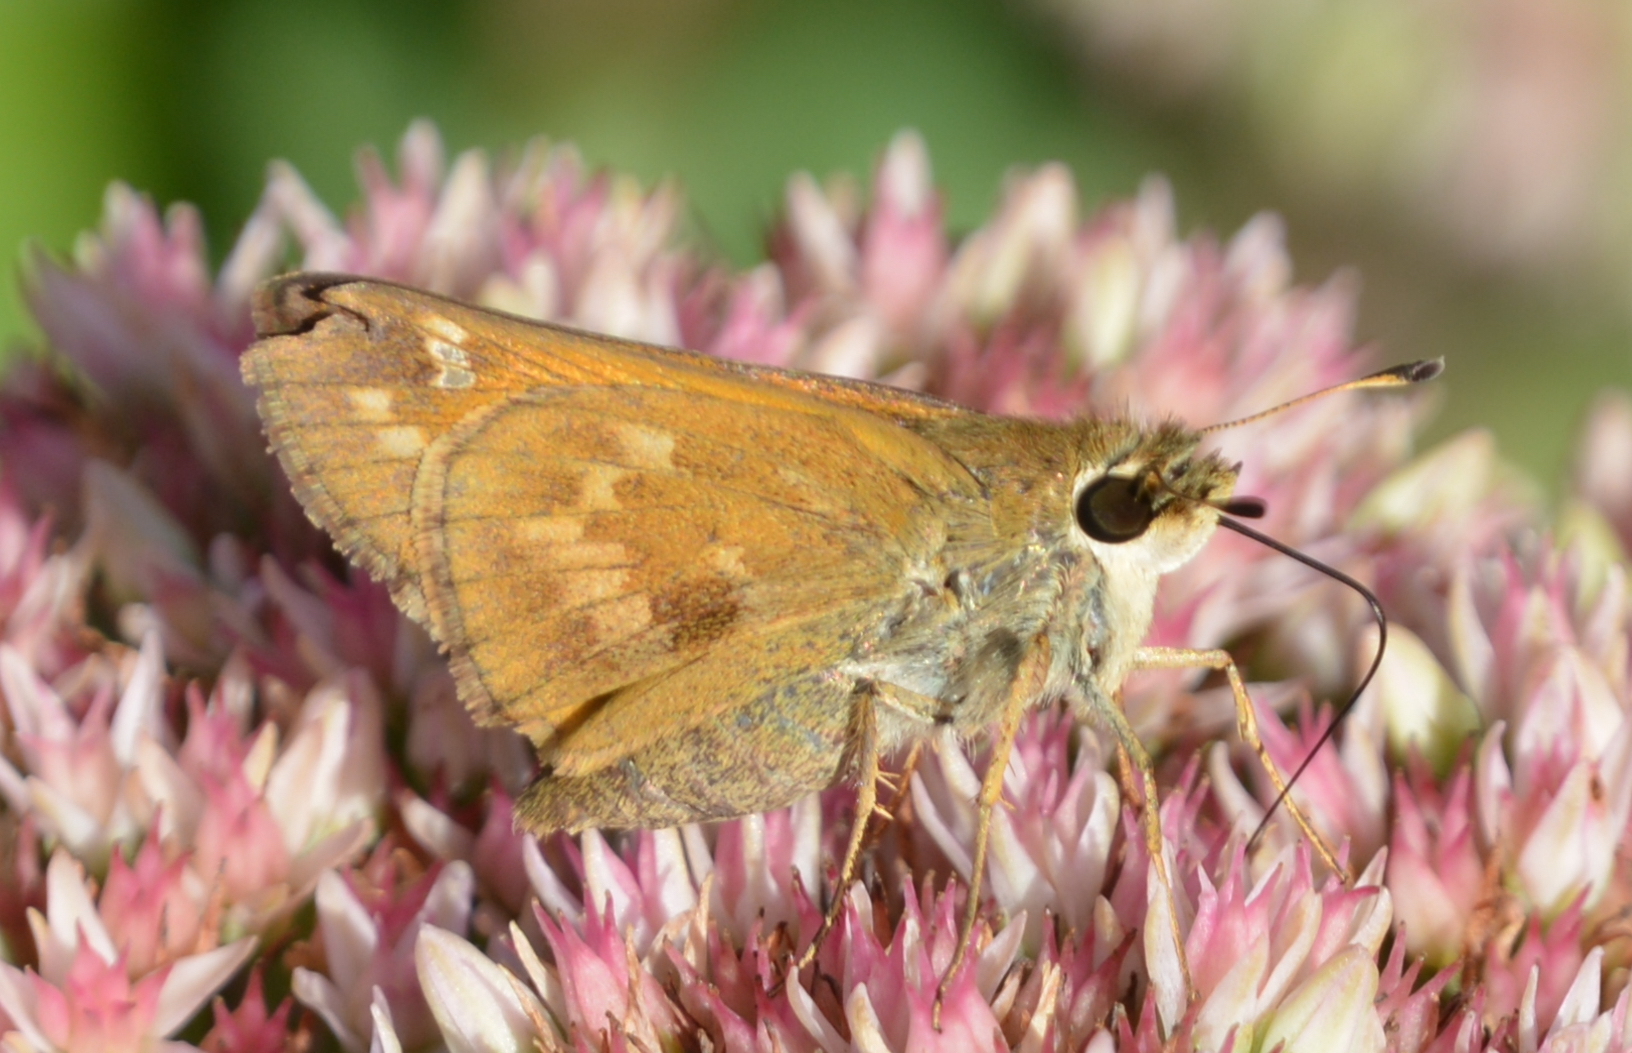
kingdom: Animalia
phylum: Arthropoda
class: Insecta
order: Lepidoptera
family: Hesperiidae
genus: Atalopedes
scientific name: Atalopedes
